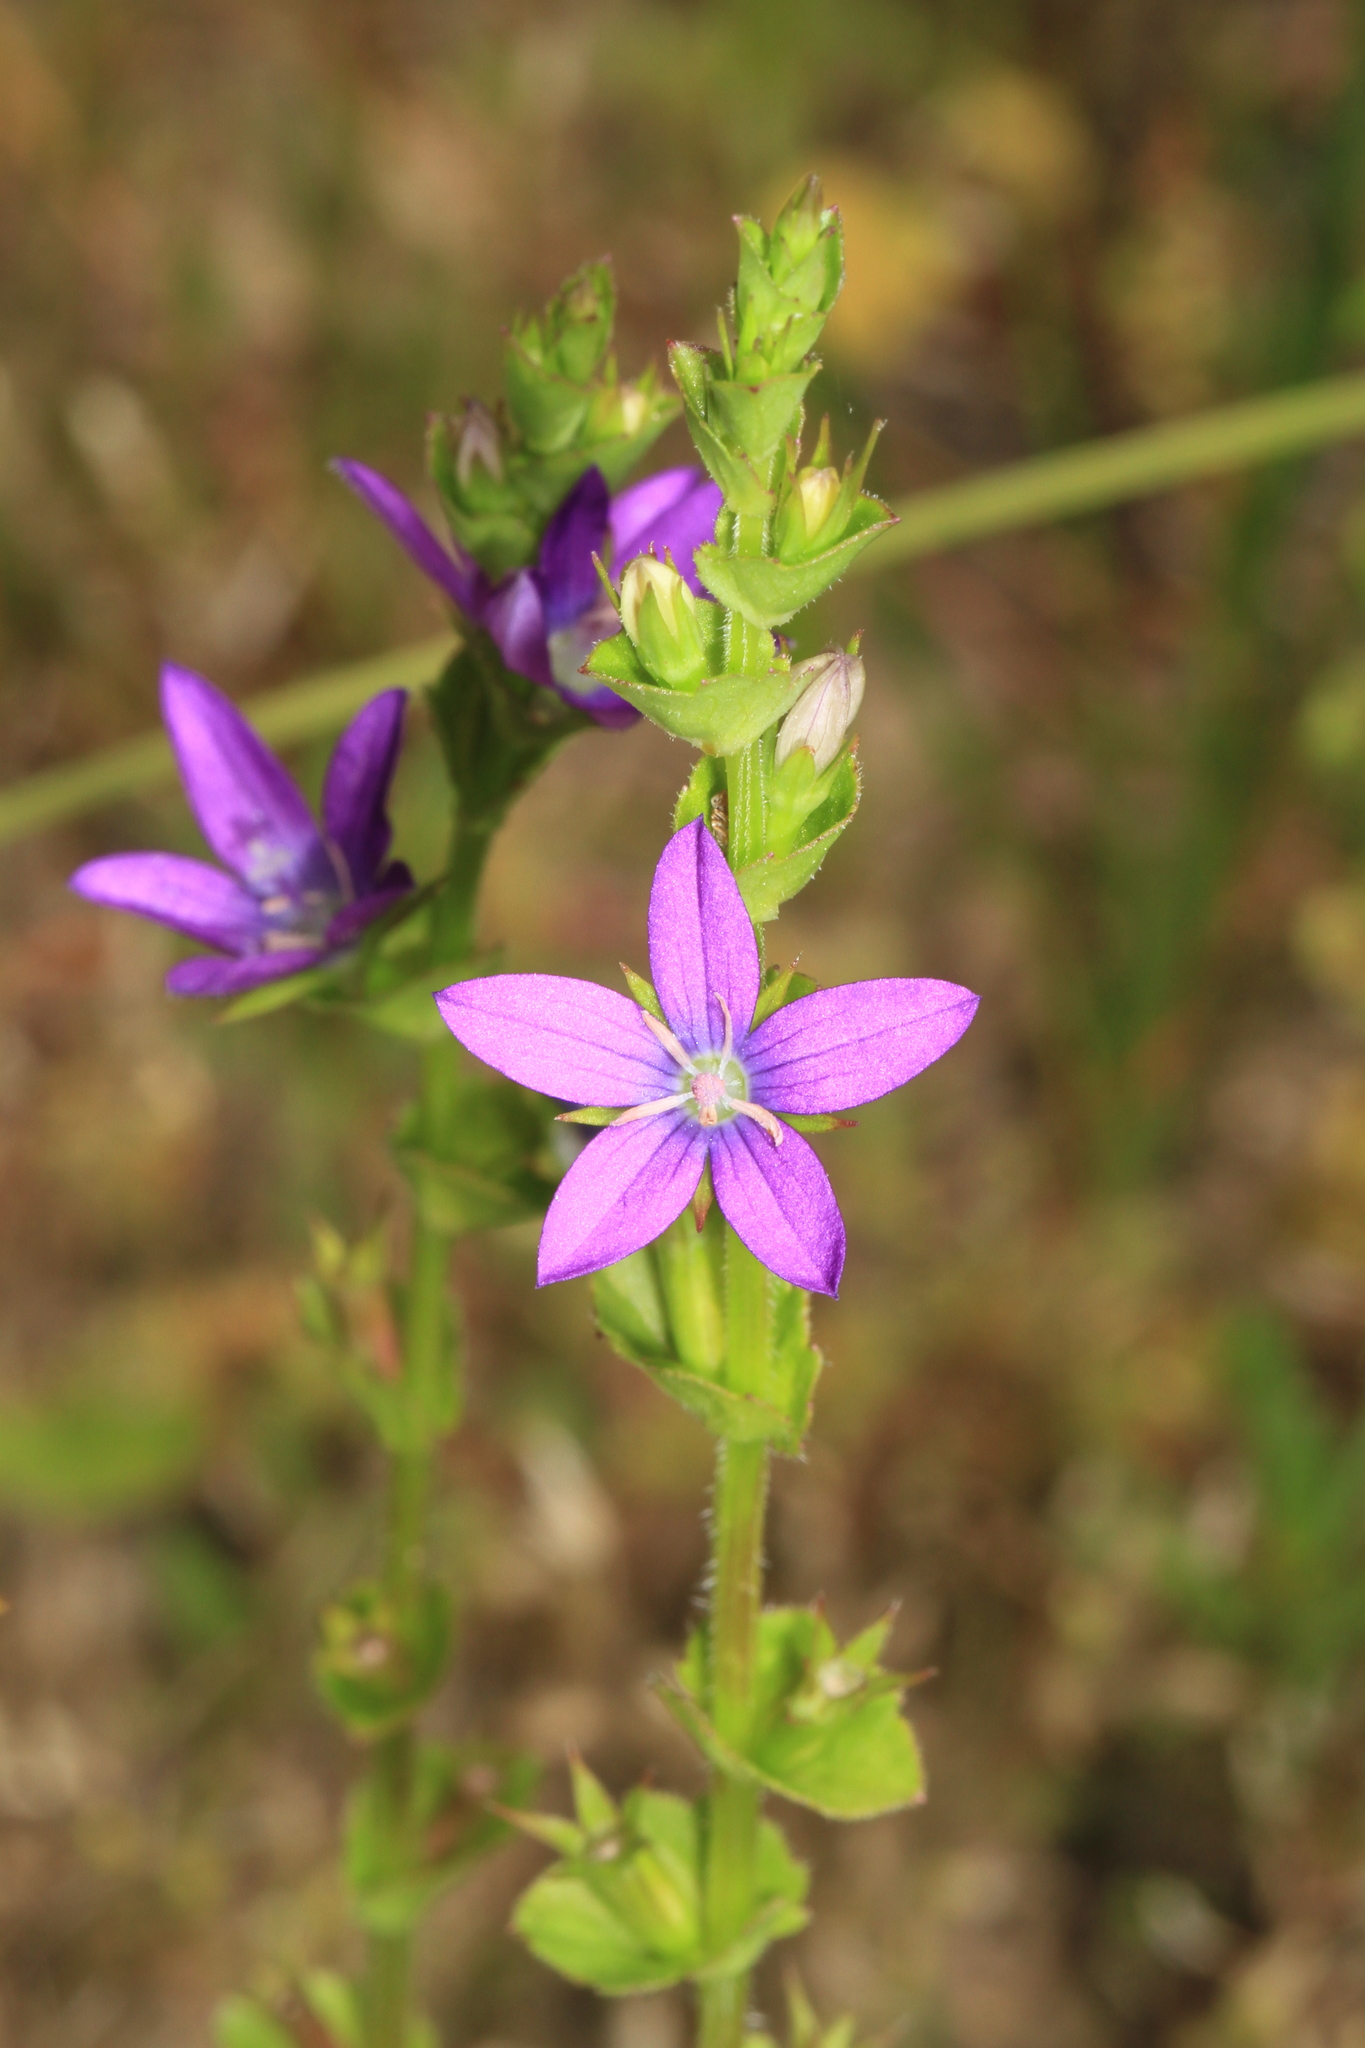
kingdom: Plantae
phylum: Tracheophyta
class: Magnoliopsida
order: Asterales
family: Campanulaceae
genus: Triodanis
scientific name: Triodanis perfoliata
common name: Clasping venus' looking-glass
